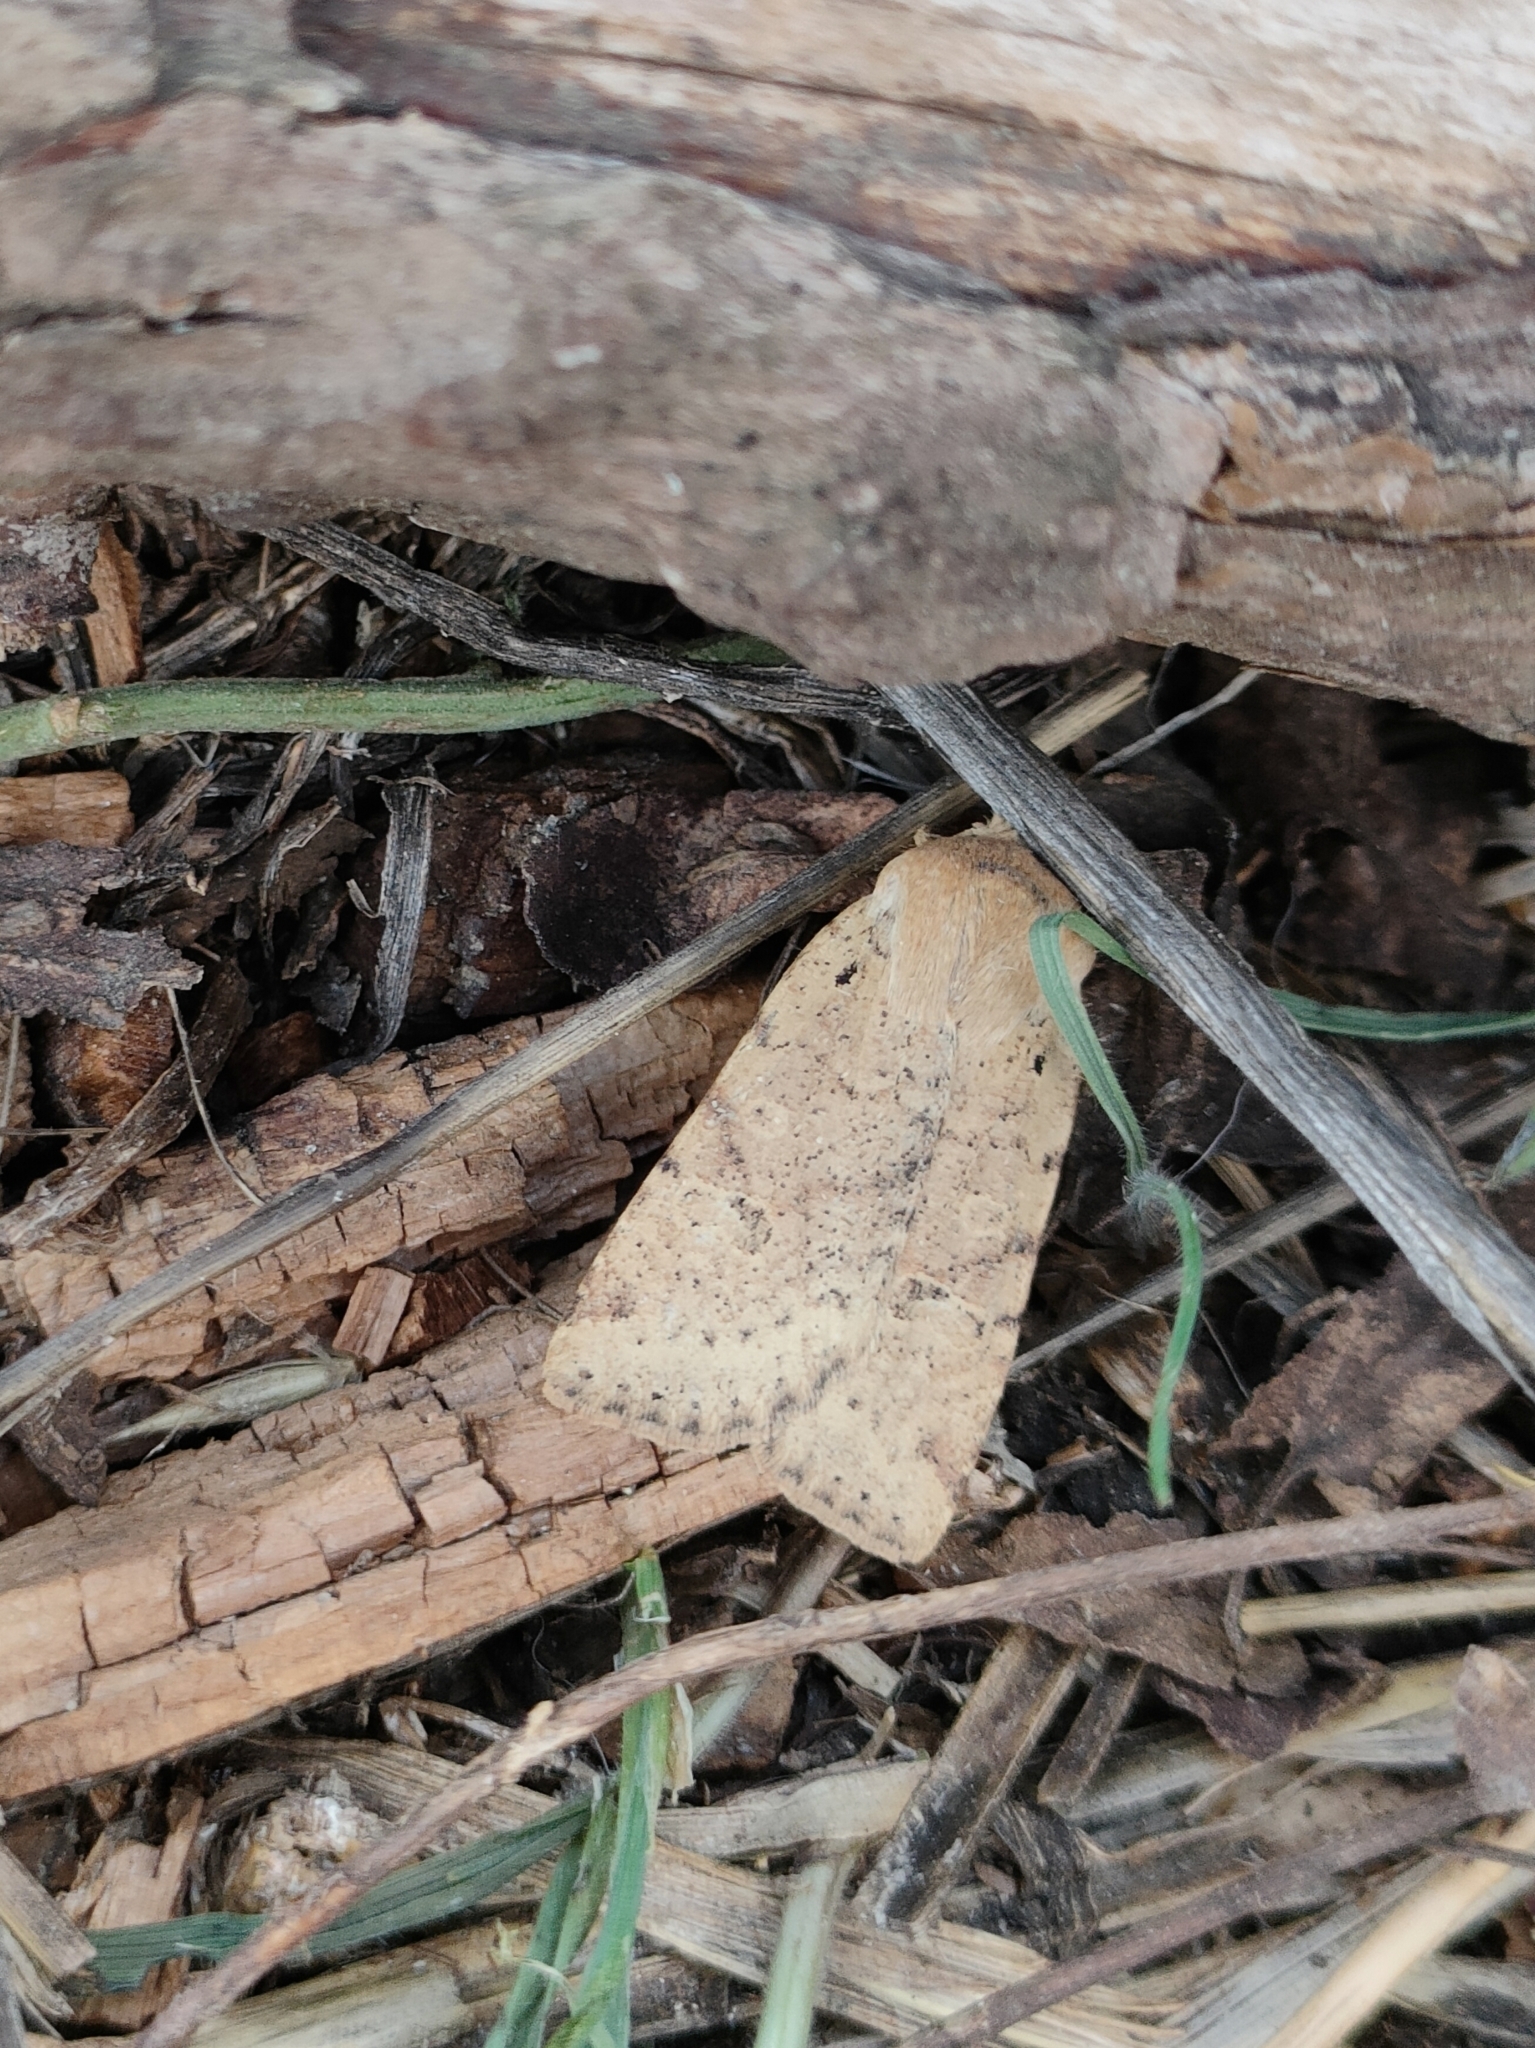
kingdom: Animalia
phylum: Arthropoda
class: Insecta
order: Lepidoptera
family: Noctuidae
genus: Conistra
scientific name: Conistra daubei
